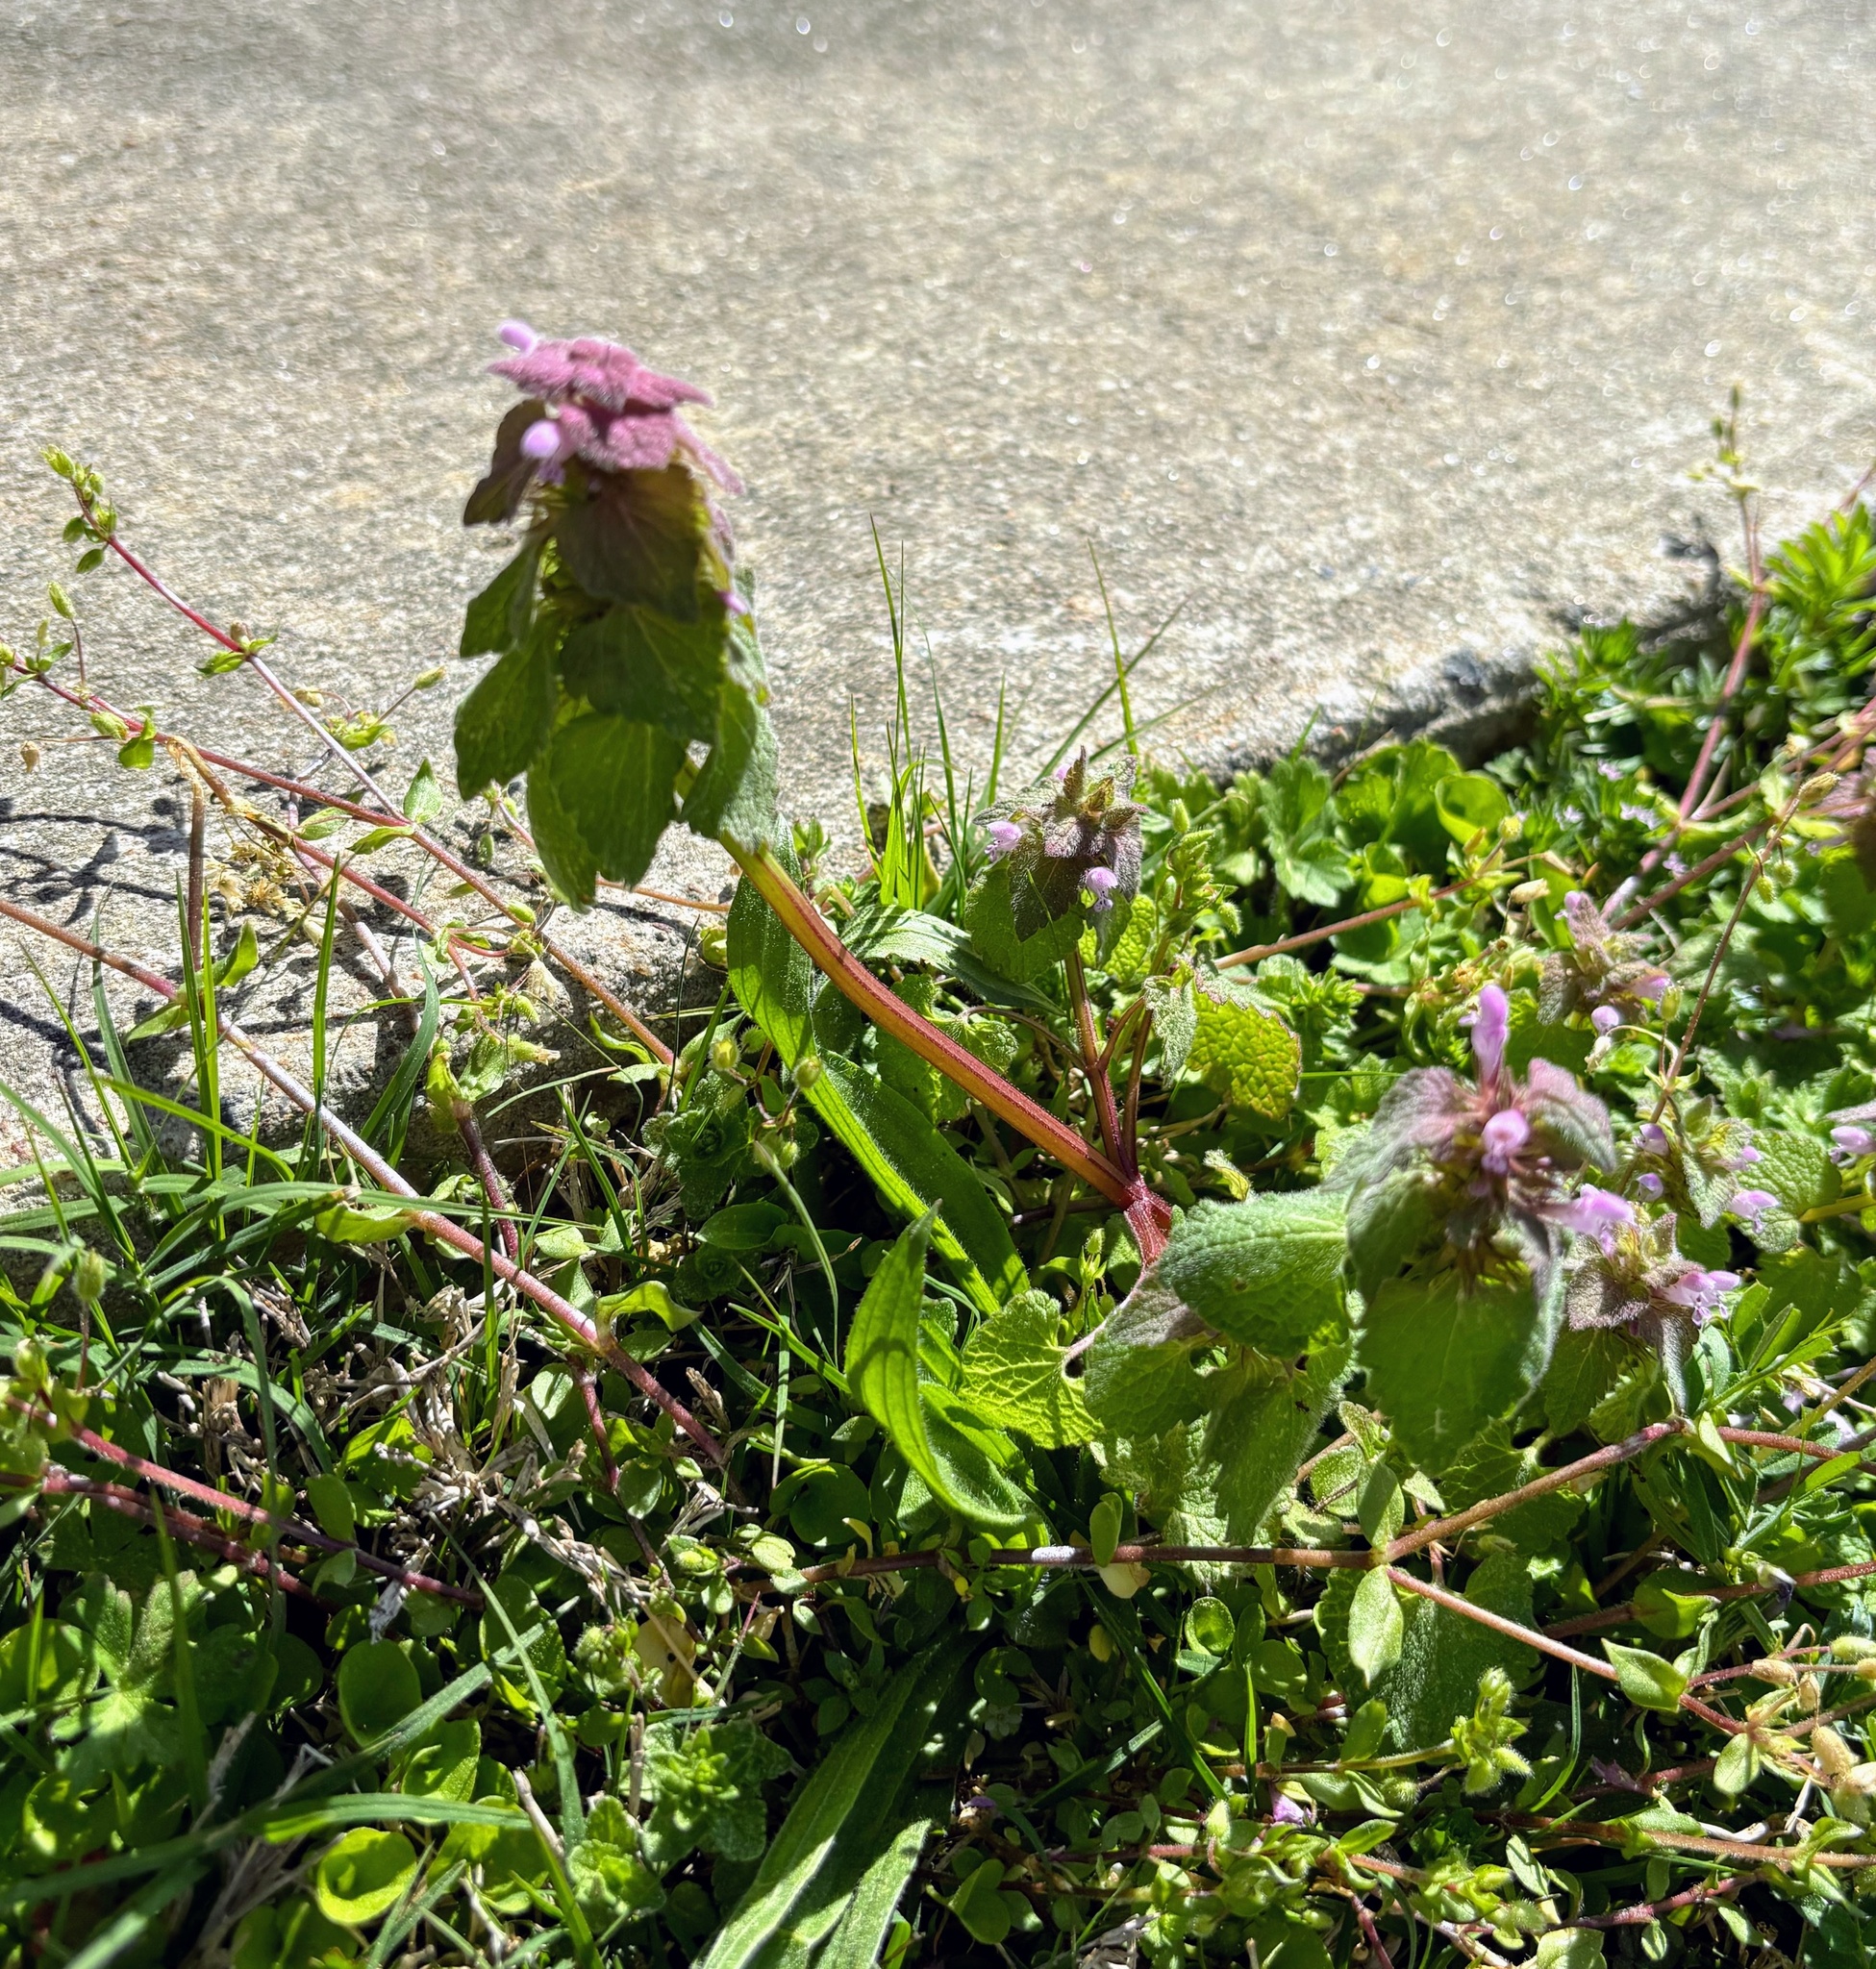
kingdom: Plantae
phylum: Tracheophyta
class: Magnoliopsida
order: Lamiales
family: Lamiaceae
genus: Lamium
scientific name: Lamium purpureum
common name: Red dead-nettle
